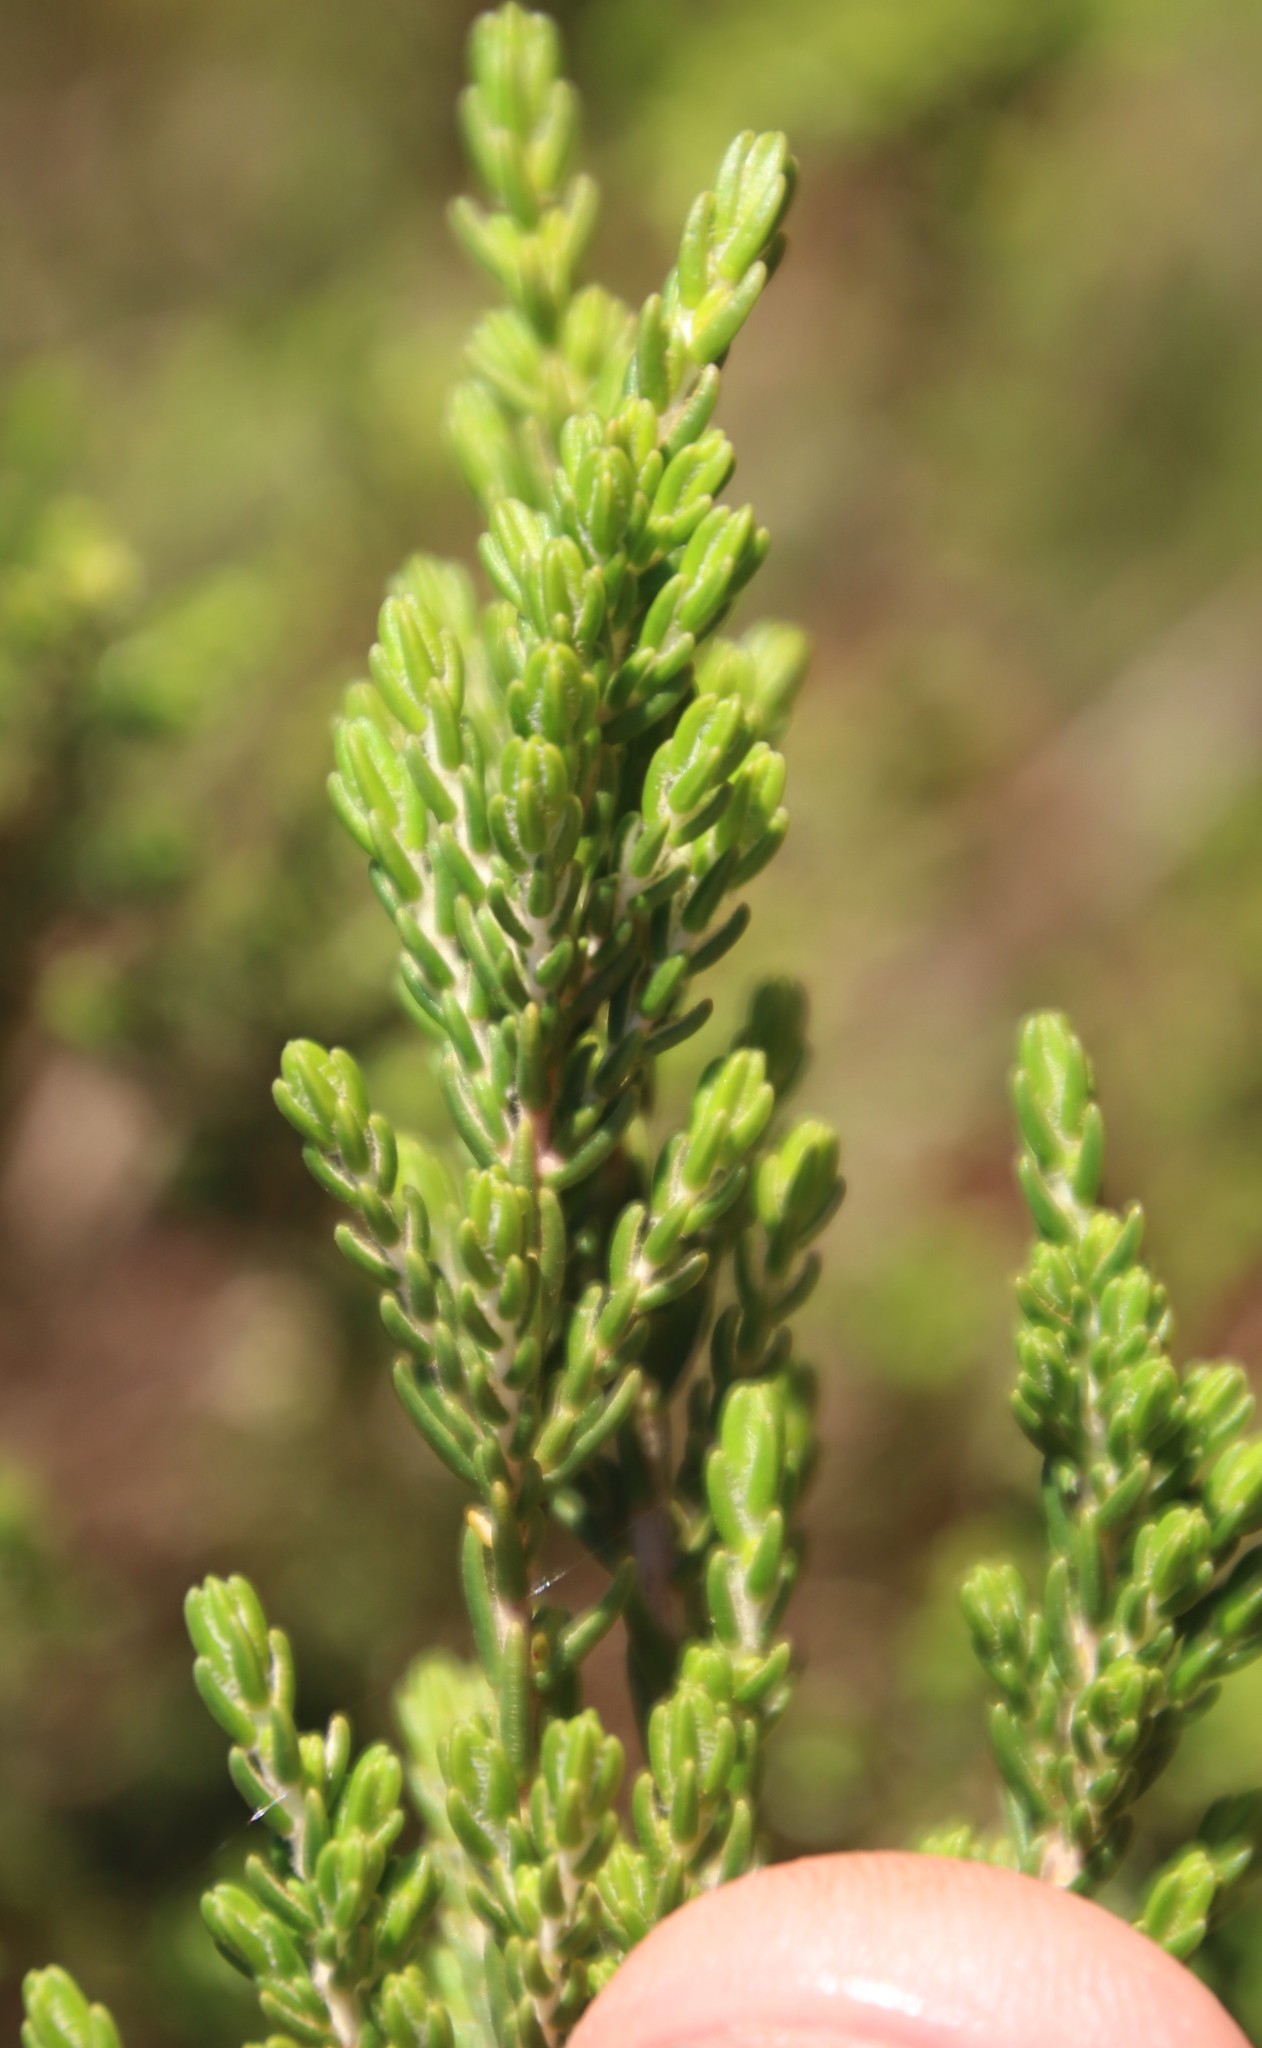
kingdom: Plantae
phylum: Tracheophyta
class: Magnoliopsida
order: Ericales
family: Ericaceae
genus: Erica
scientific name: Erica baccans
